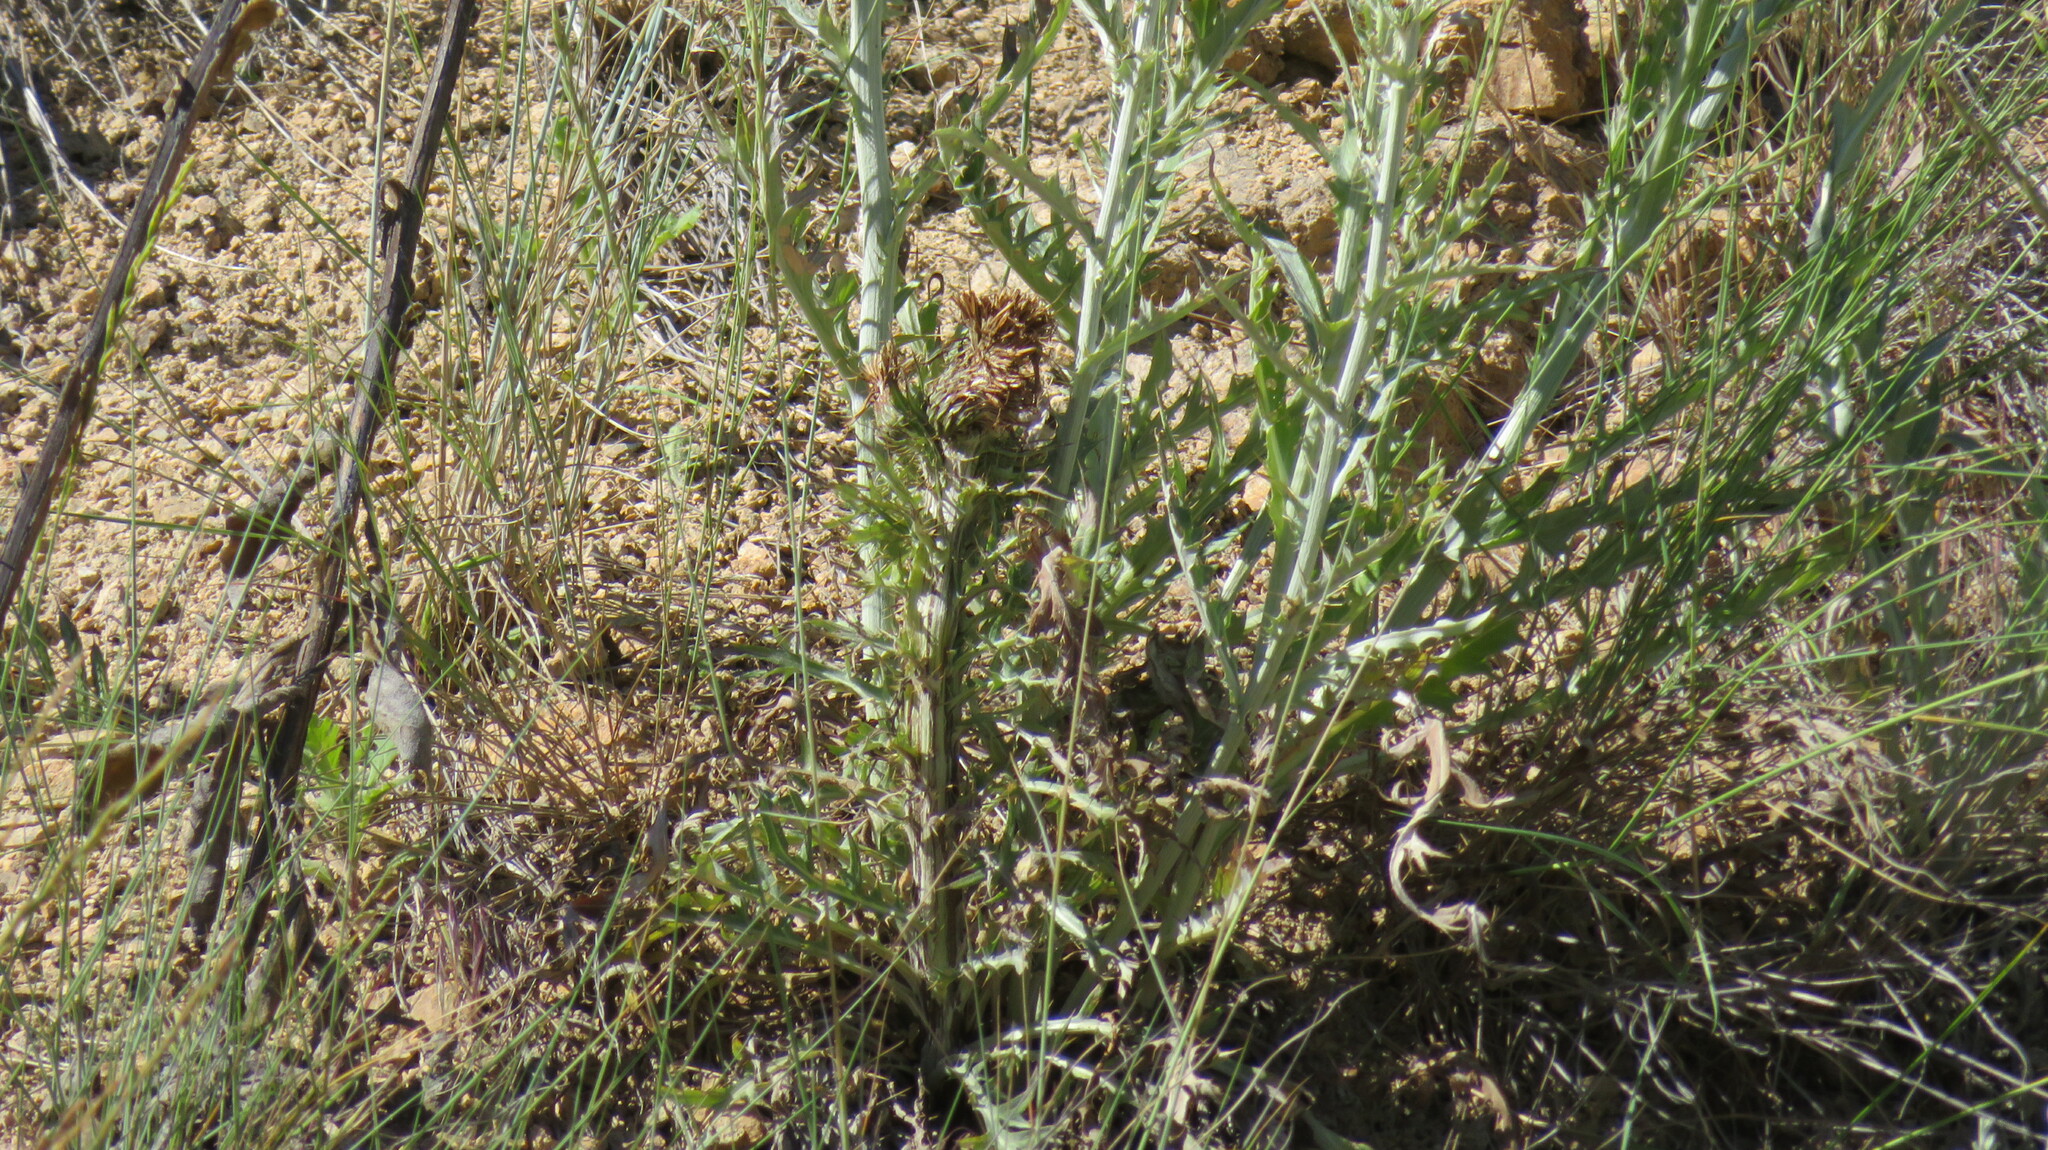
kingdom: Plantae
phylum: Tracheophyta
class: Magnoliopsida
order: Asterales
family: Asteraceae
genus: Cirsium
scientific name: Cirsium undulatum
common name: Pasture thistle
